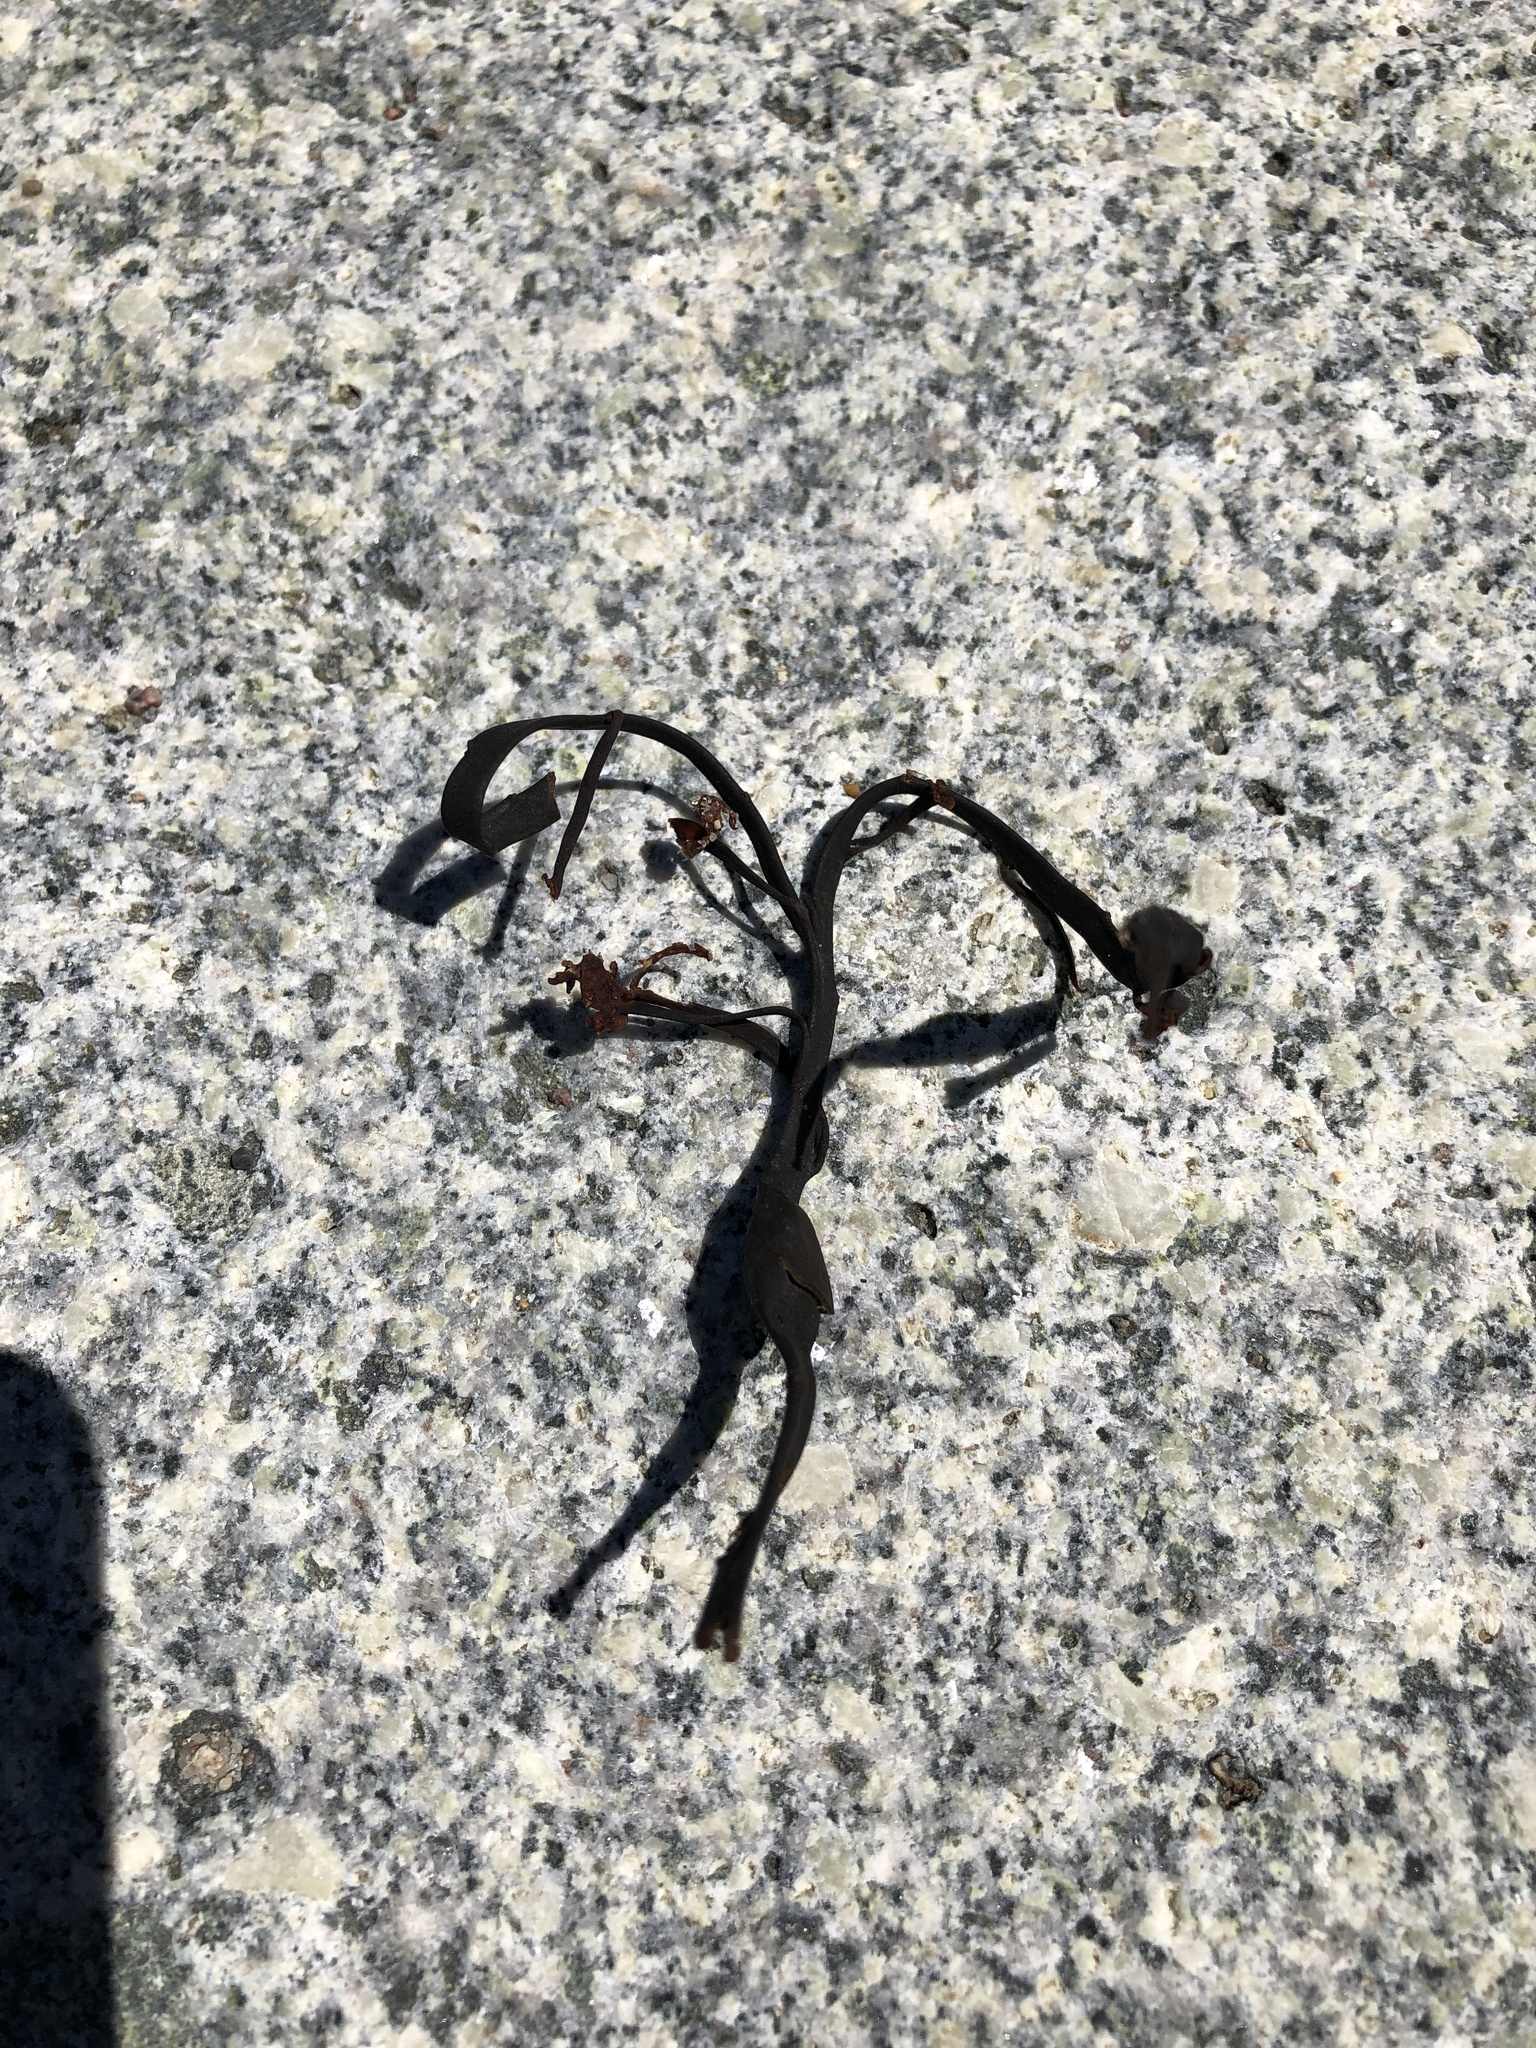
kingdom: Chromista
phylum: Ochrophyta
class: Phaeophyceae
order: Fucales
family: Fucaceae
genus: Ascophyllum
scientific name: Ascophyllum nodosum
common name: Knotted wrack
